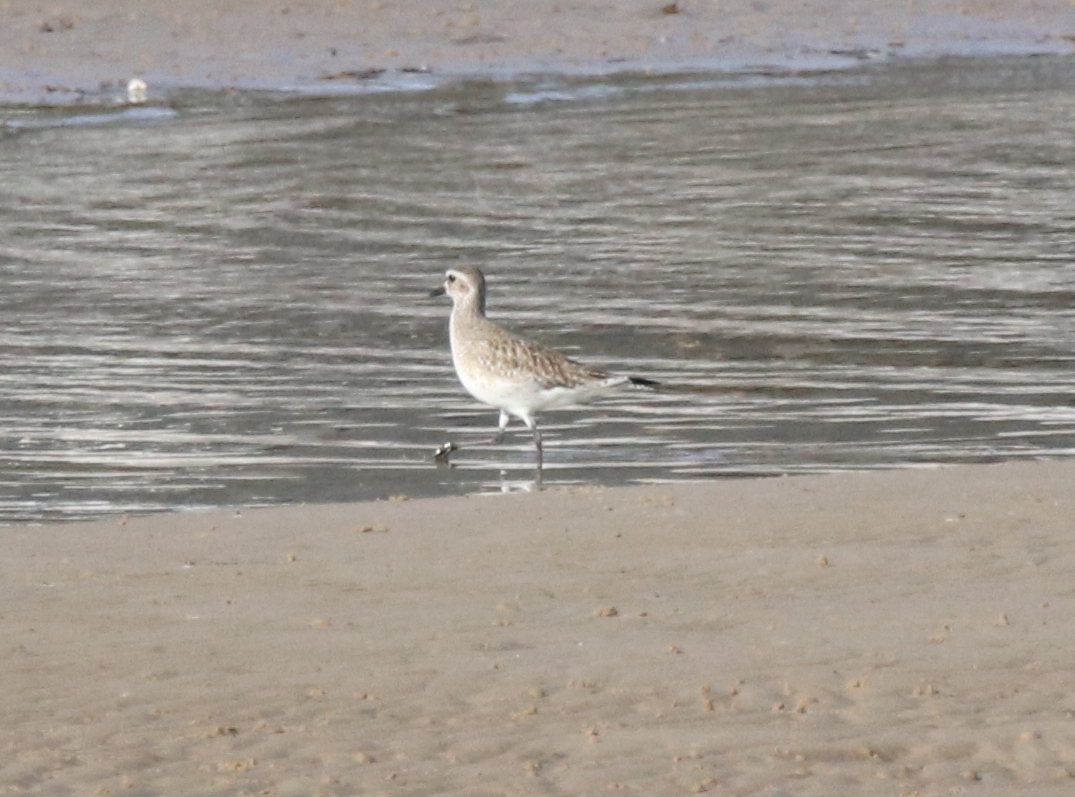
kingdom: Animalia
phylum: Chordata
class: Aves
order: Charadriiformes
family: Charadriidae
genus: Pluvialis
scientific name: Pluvialis squatarola
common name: Grey plover
